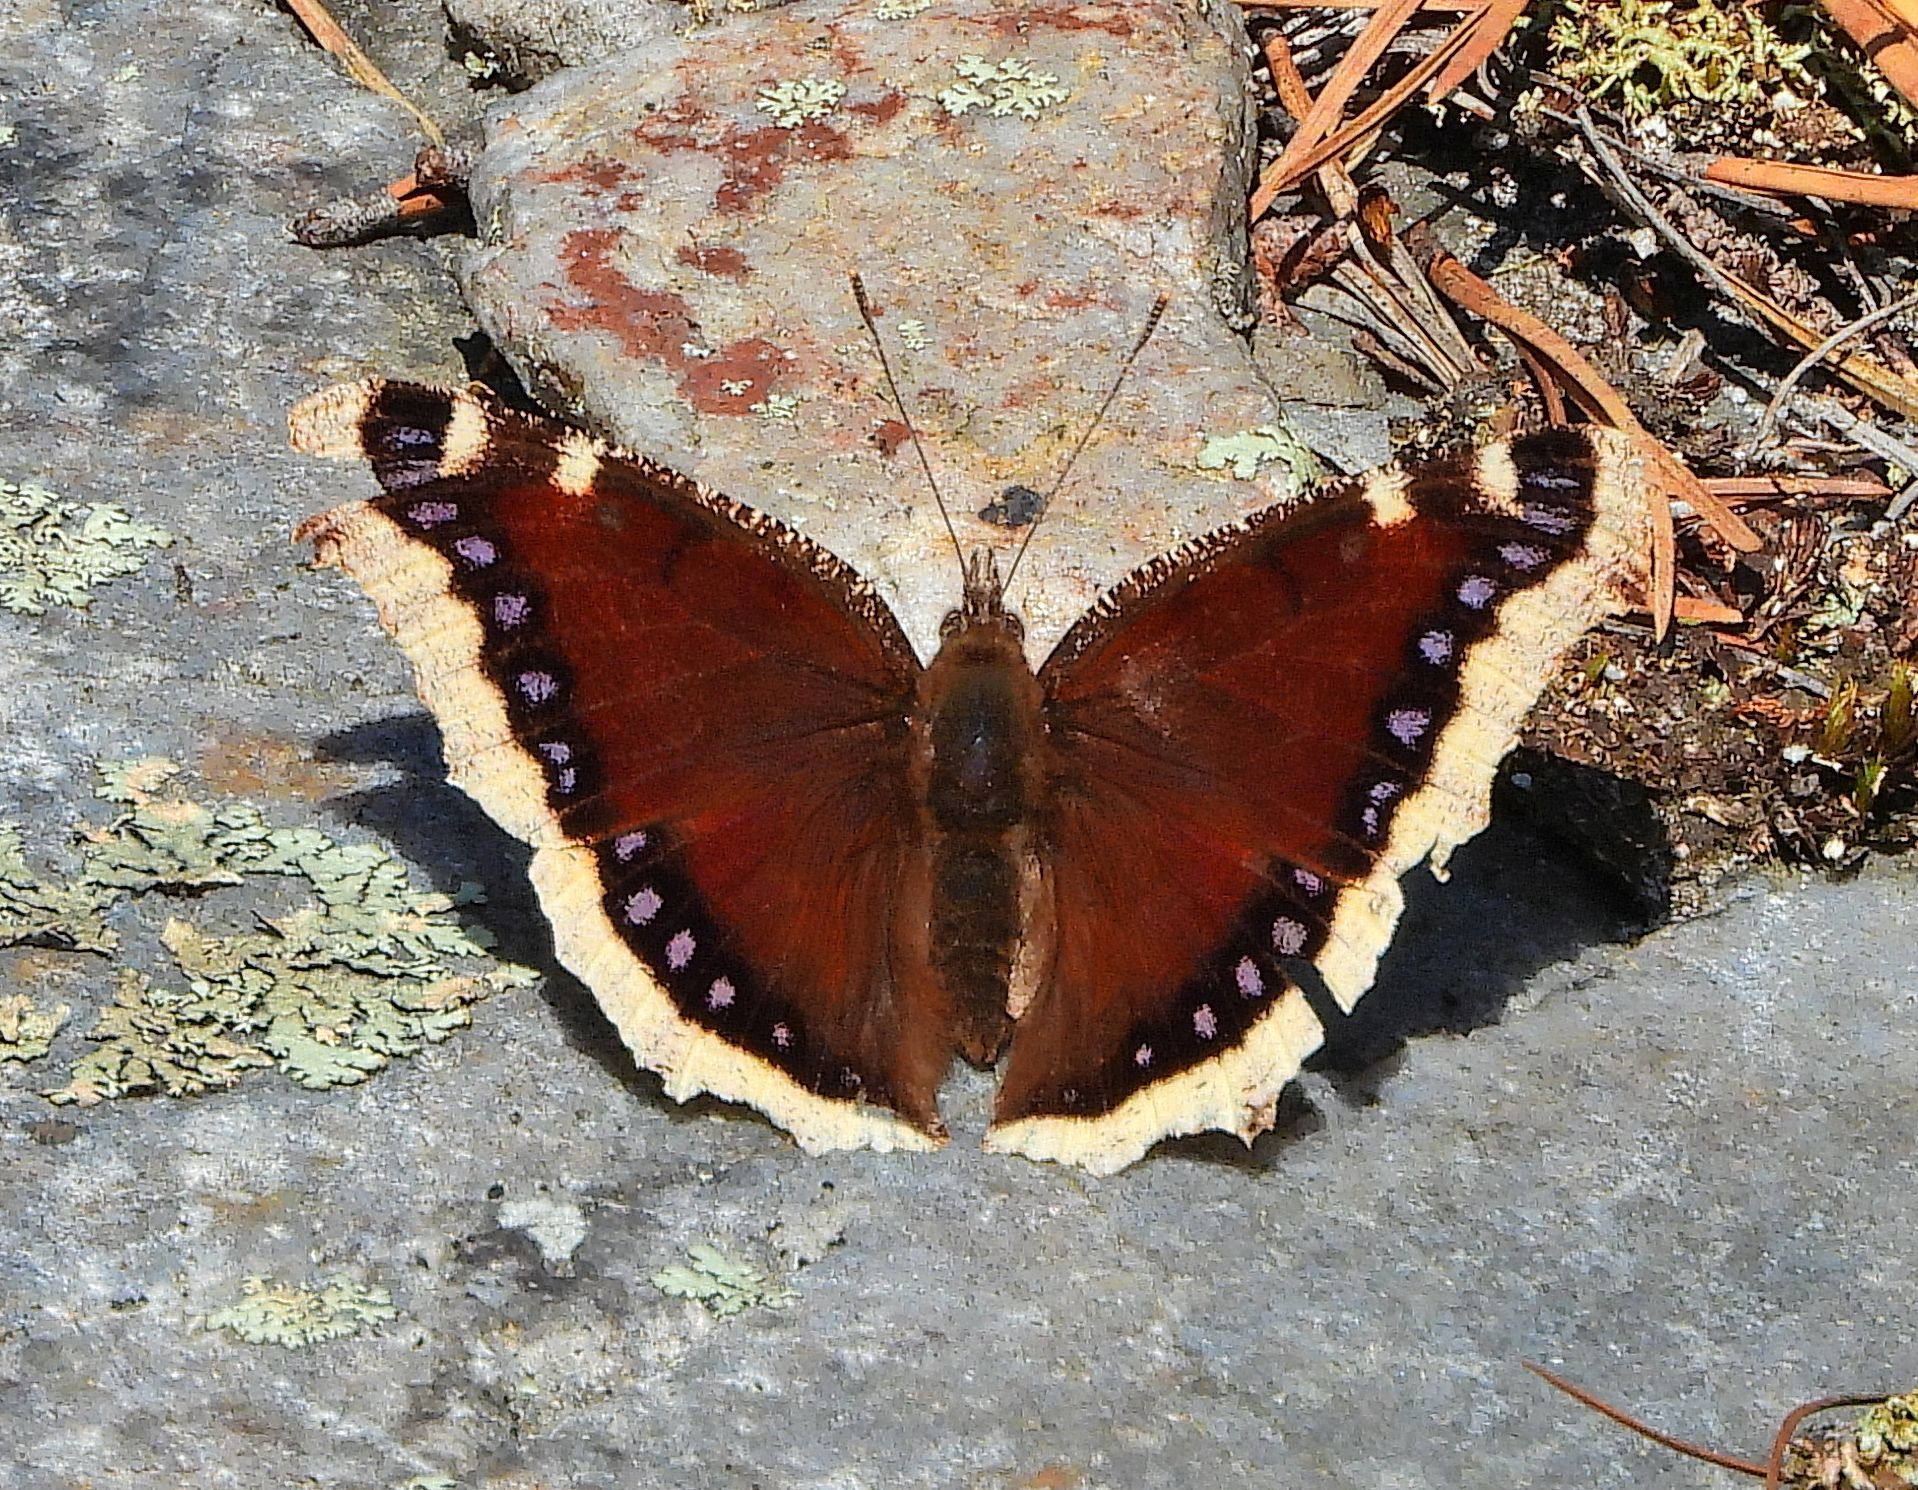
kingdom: Animalia
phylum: Arthropoda
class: Insecta
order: Lepidoptera
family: Nymphalidae
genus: Nymphalis
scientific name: Nymphalis antiopa
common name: Camberwell beauty
